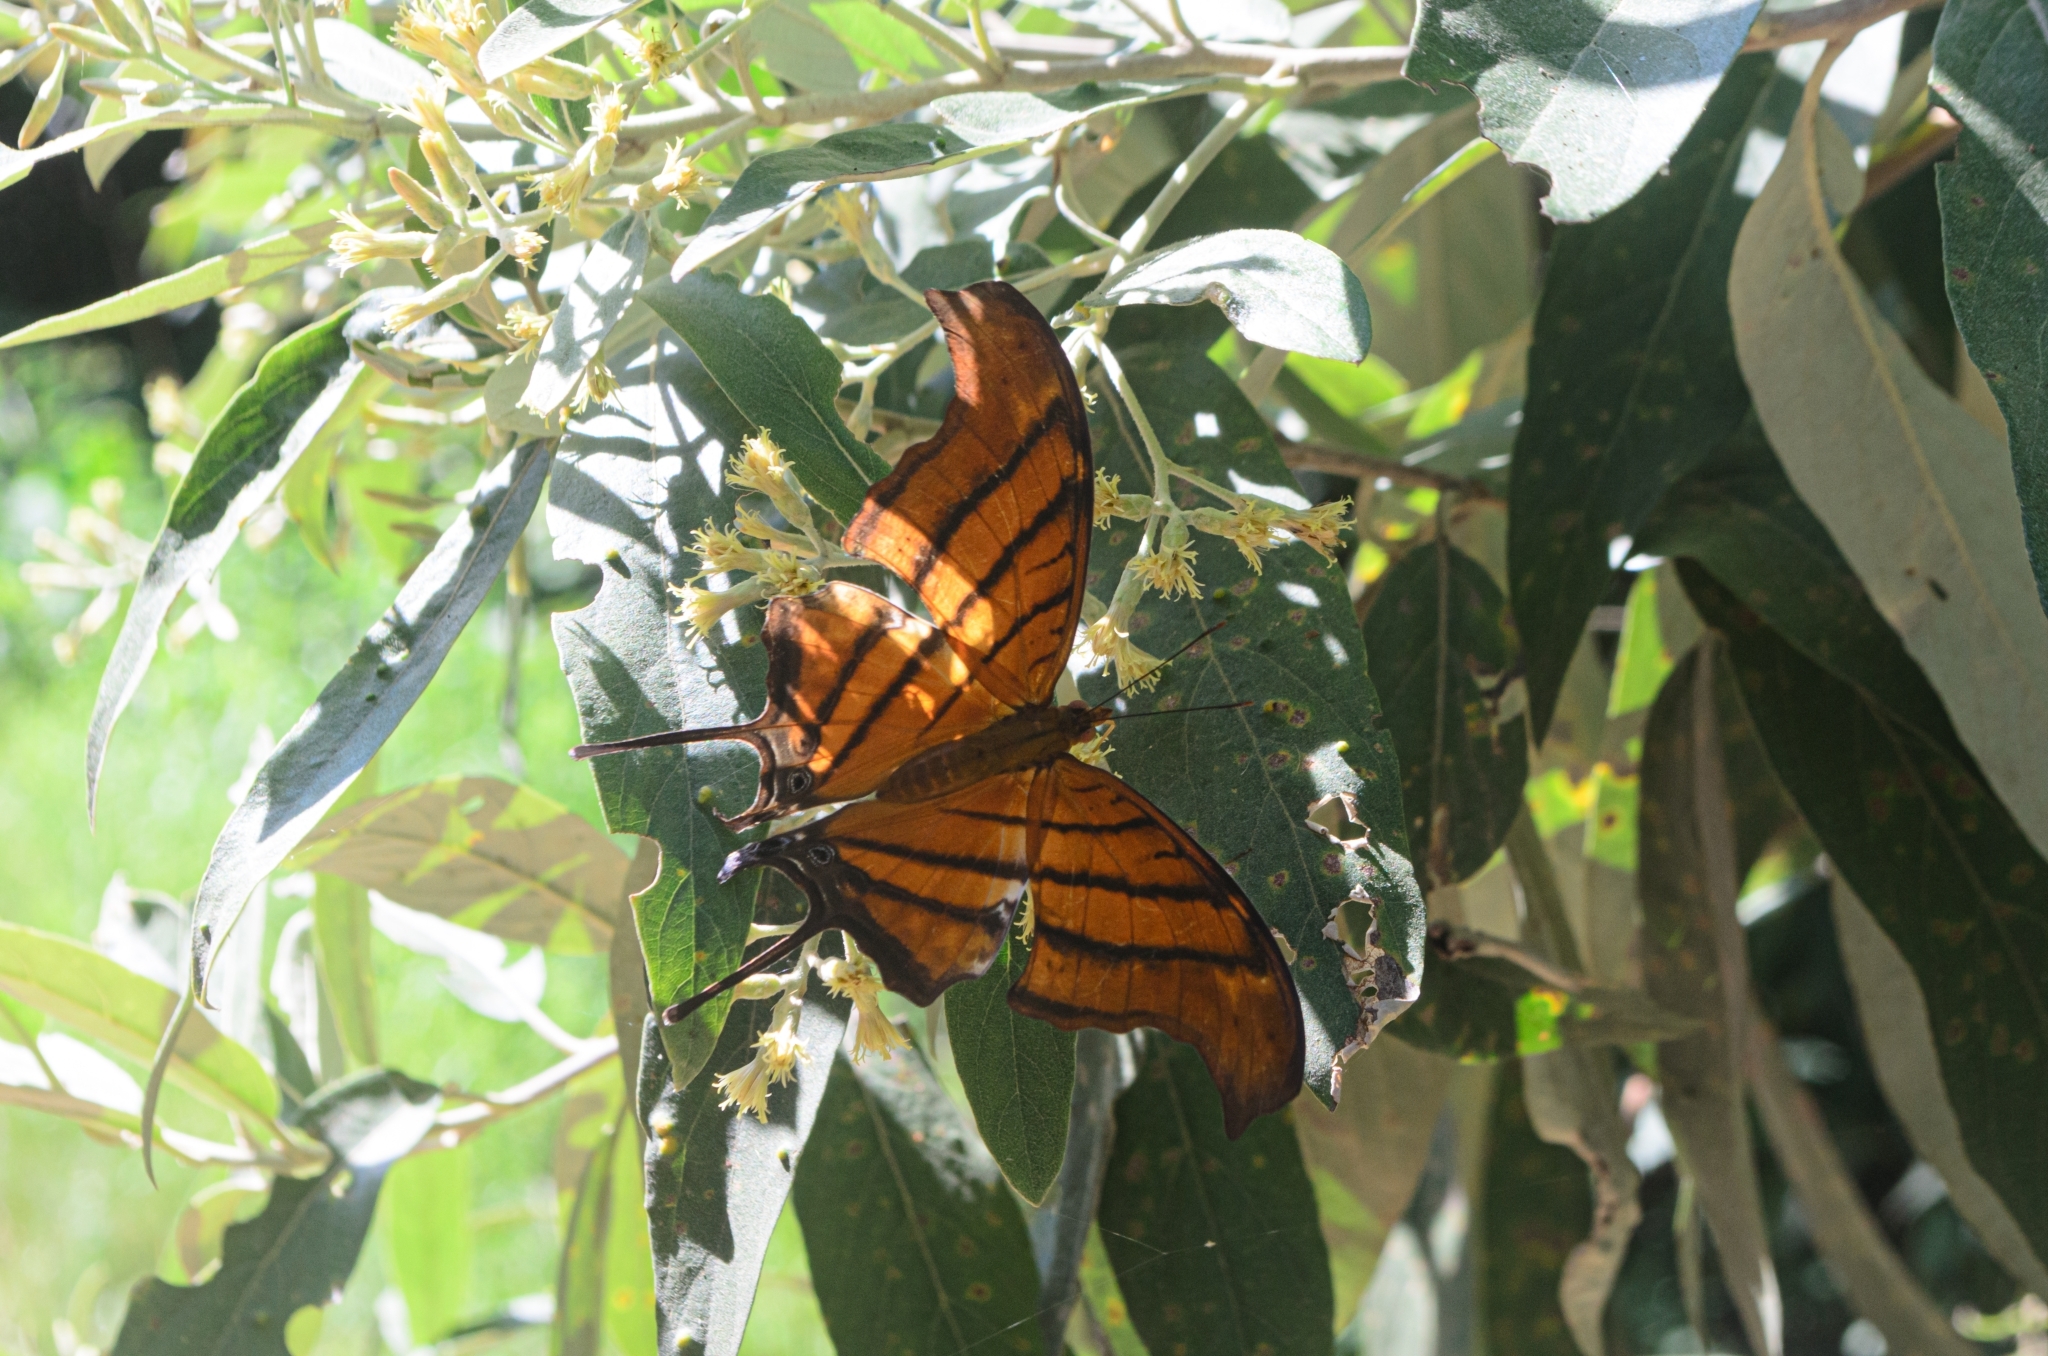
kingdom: Animalia
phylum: Arthropoda
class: Insecta
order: Lepidoptera
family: Nymphalidae
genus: Marpesia
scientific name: Marpesia petreus
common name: Red dagger wing
